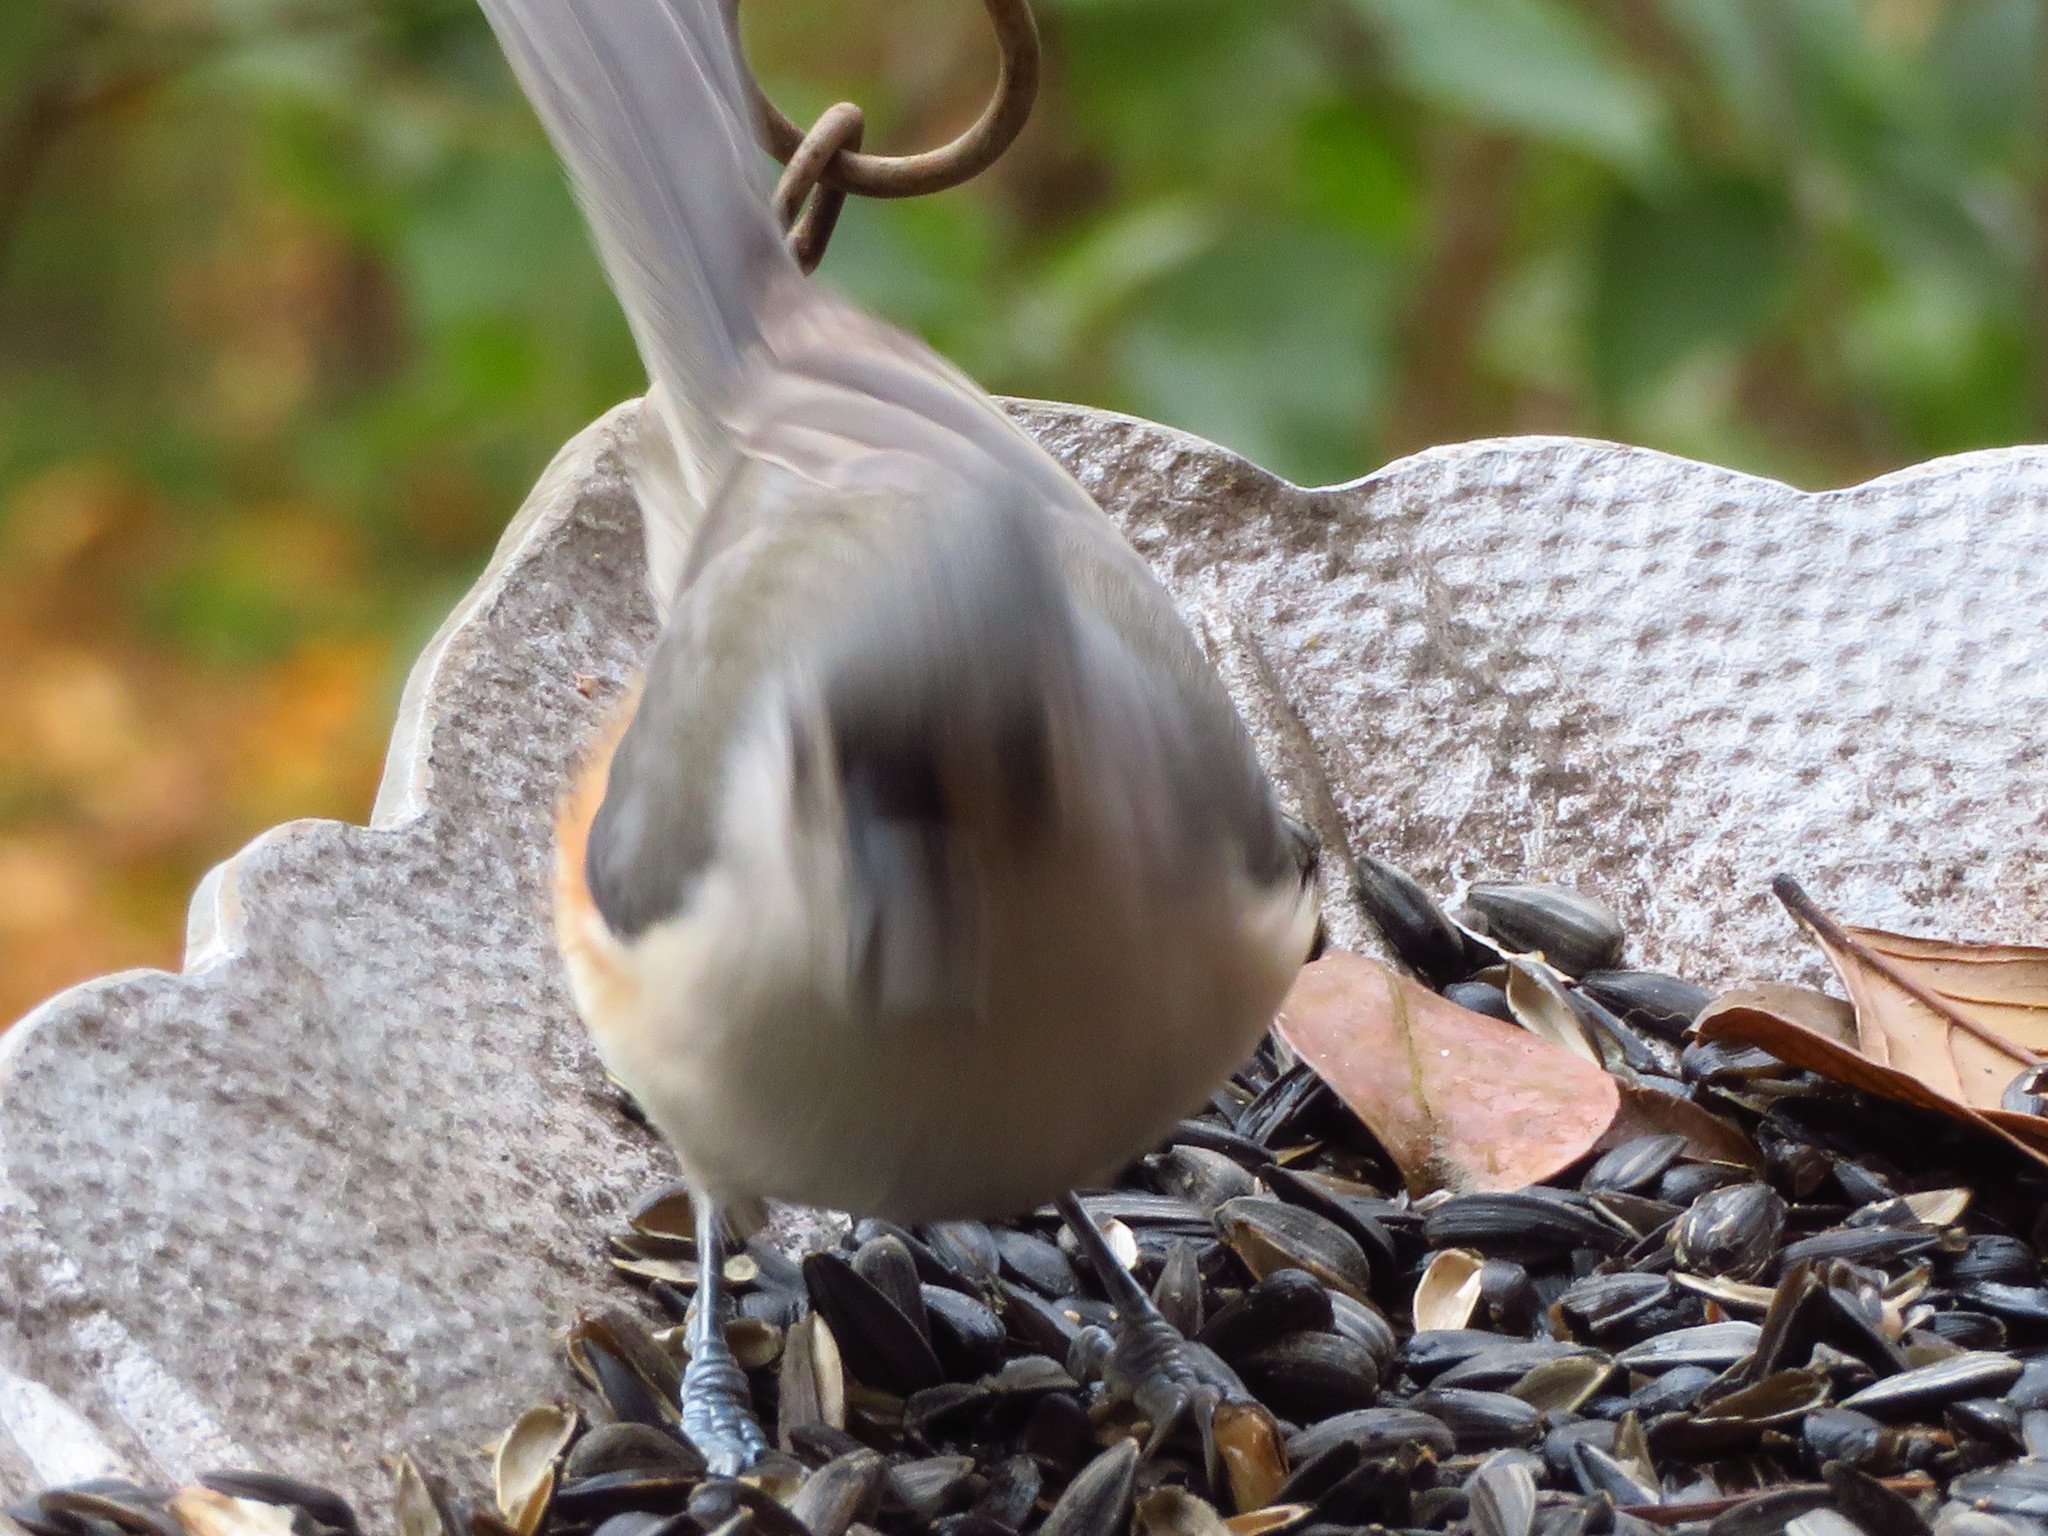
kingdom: Animalia
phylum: Chordata
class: Aves
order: Passeriformes
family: Paridae
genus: Baeolophus
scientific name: Baeolophus bicolor
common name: Tufted titmouse
